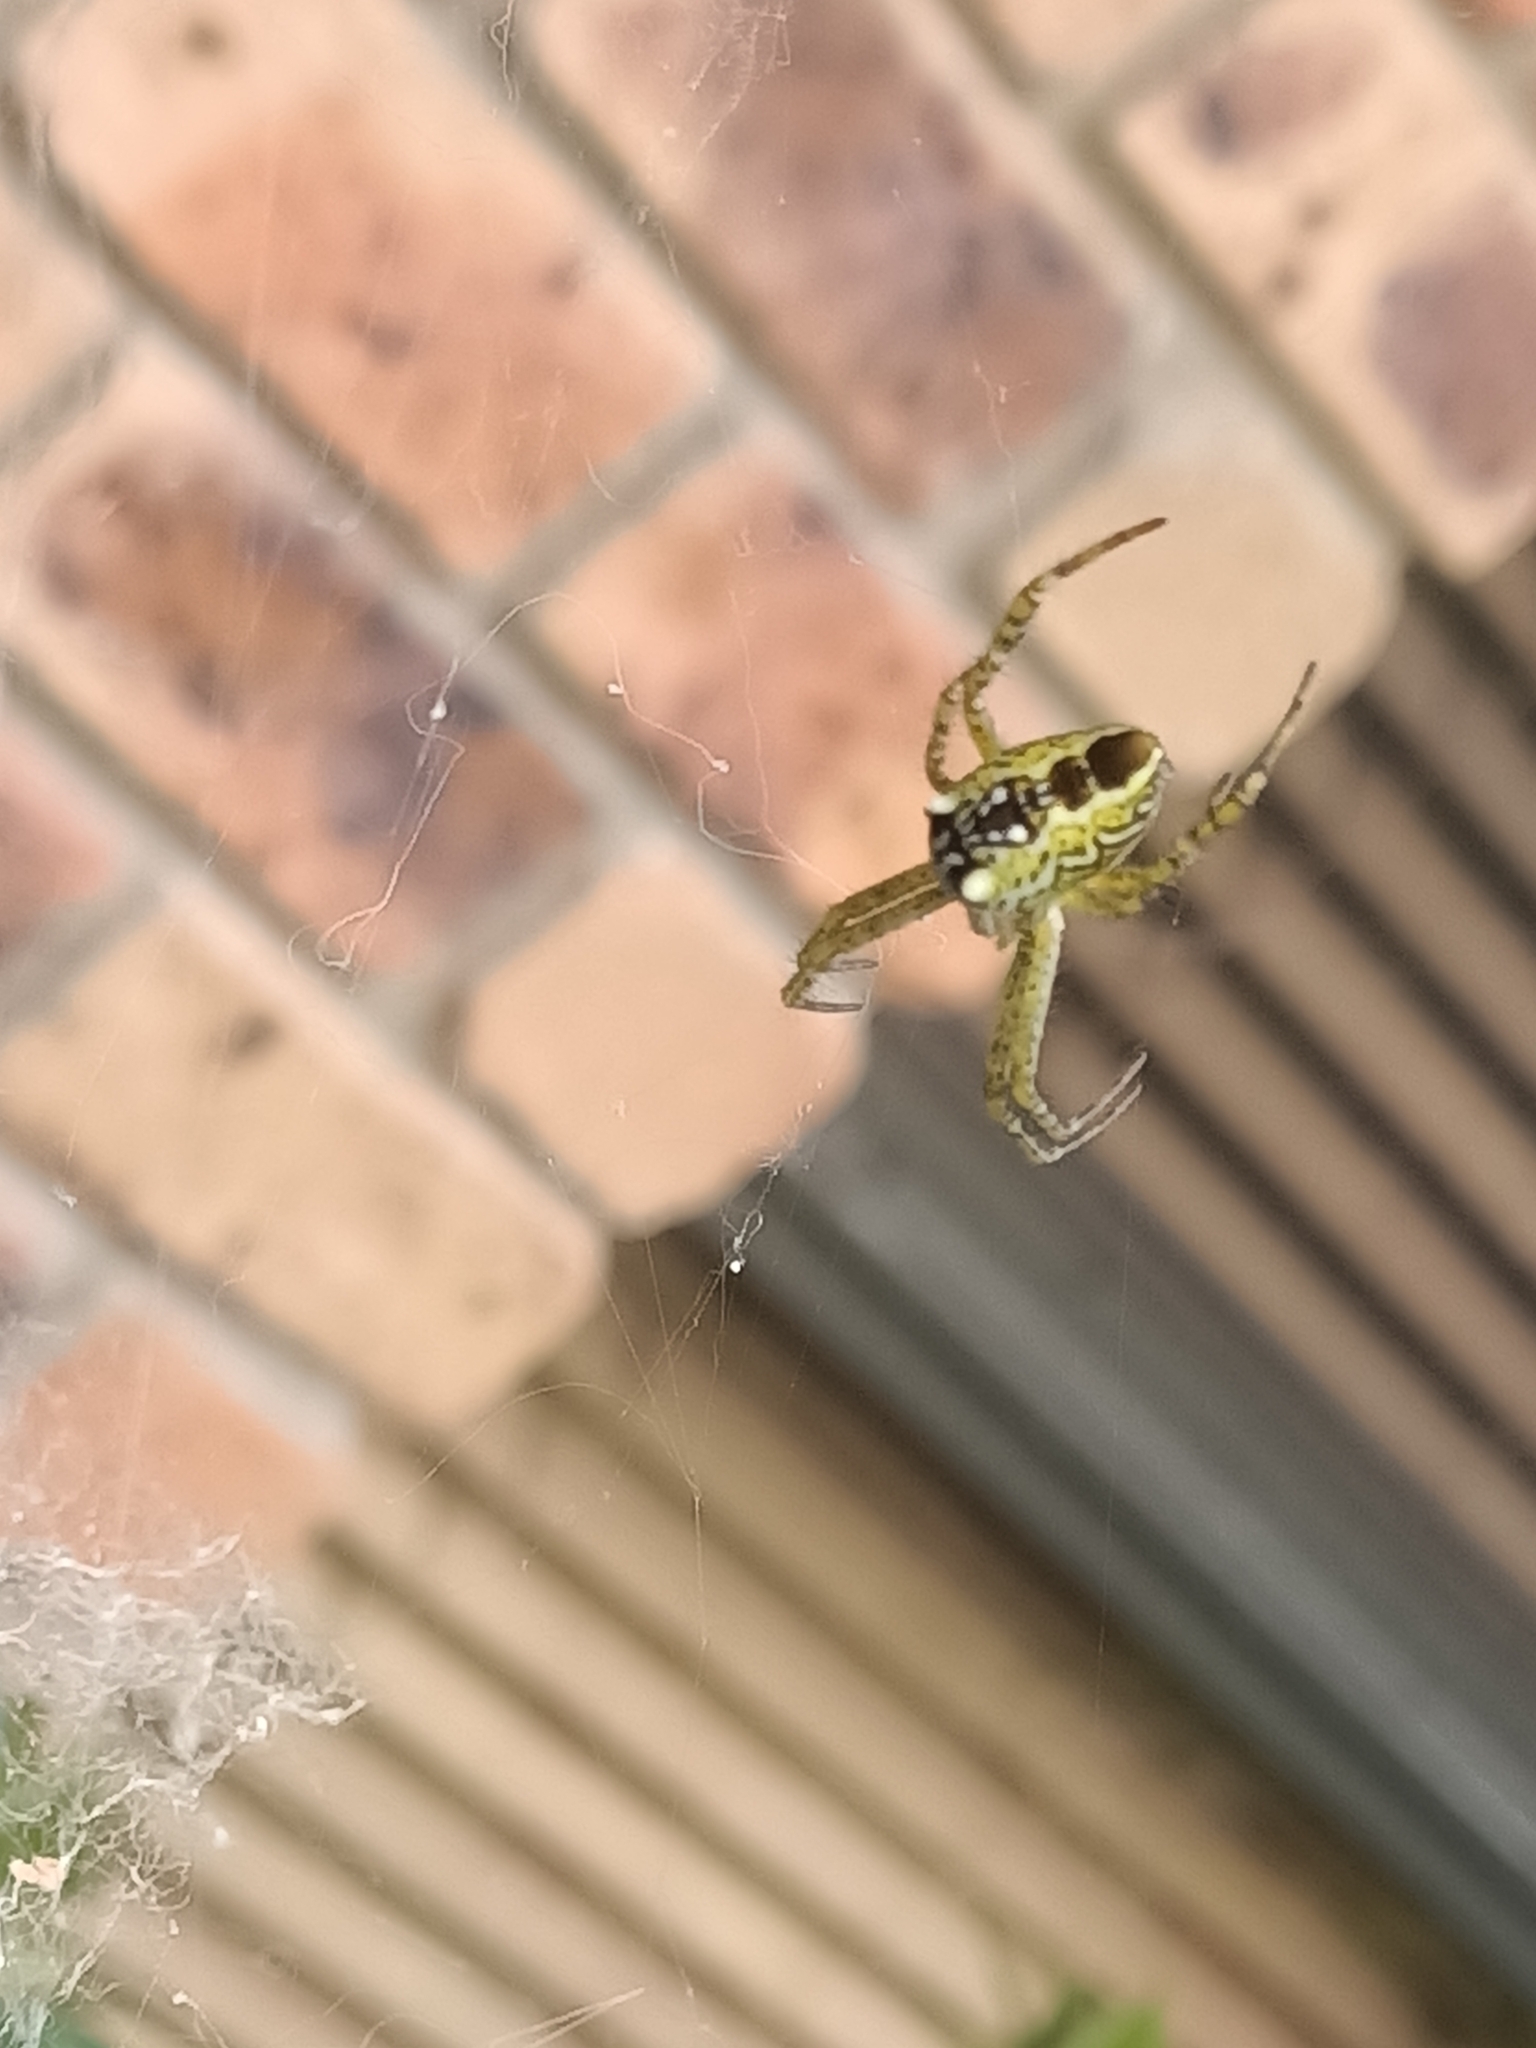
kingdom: Chromista
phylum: Ochrophyta
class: Dictyochophyceae
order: Pedinellales
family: Cyrtophoraceae
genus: Cyrtophora
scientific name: Cyrtophora moluccensis
